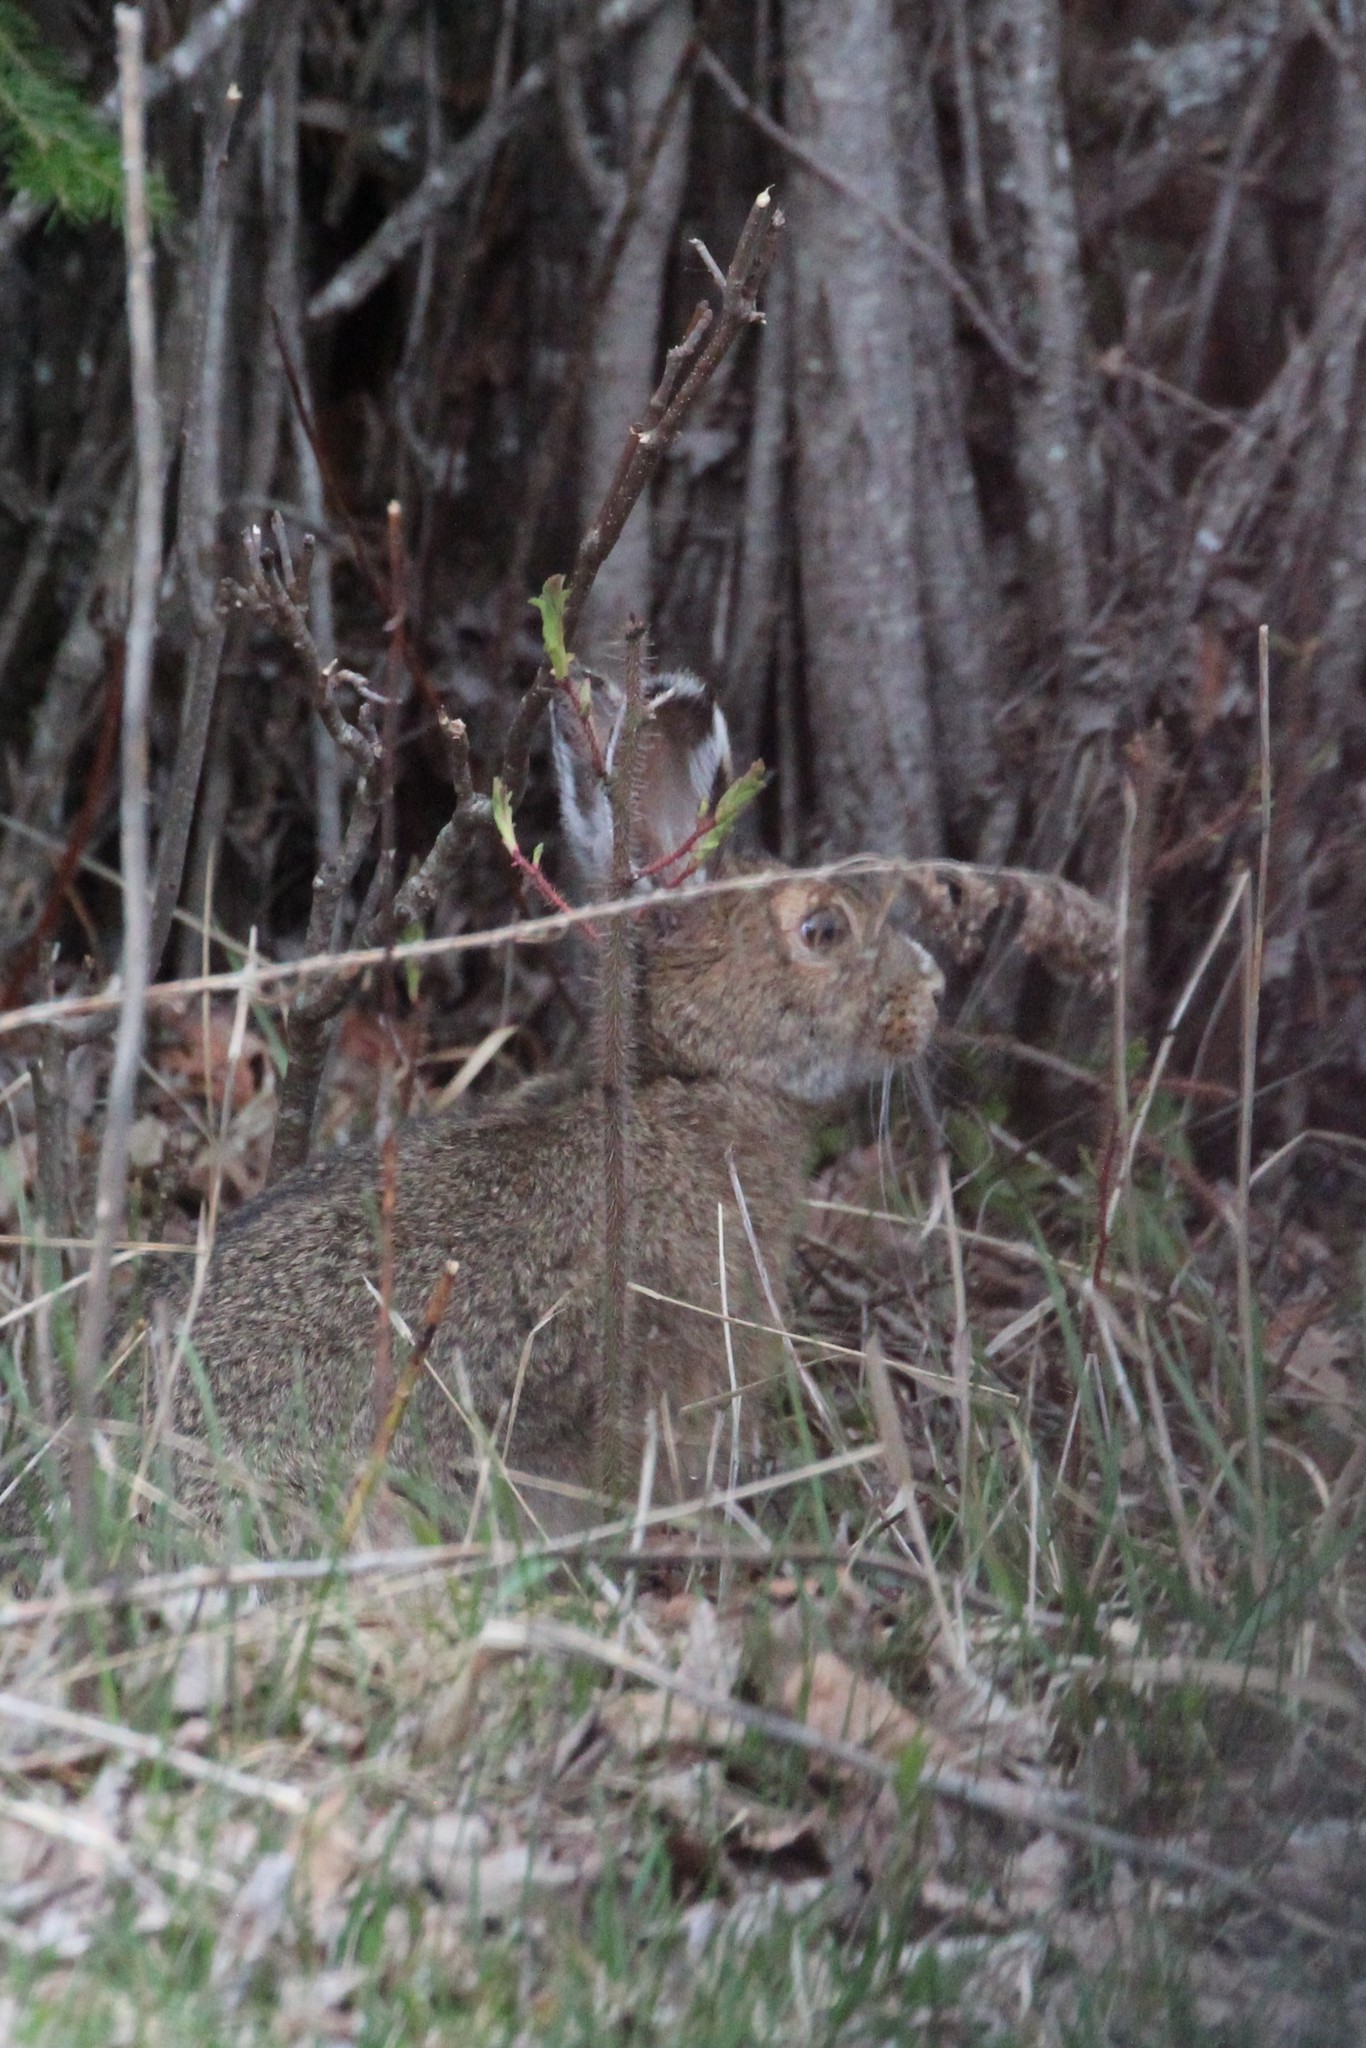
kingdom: Animalia
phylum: Chordata
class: Mammalia
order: Lagomorpha
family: Leporidae
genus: Lepus
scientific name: Lepus americanus
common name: Snowshoe hare
